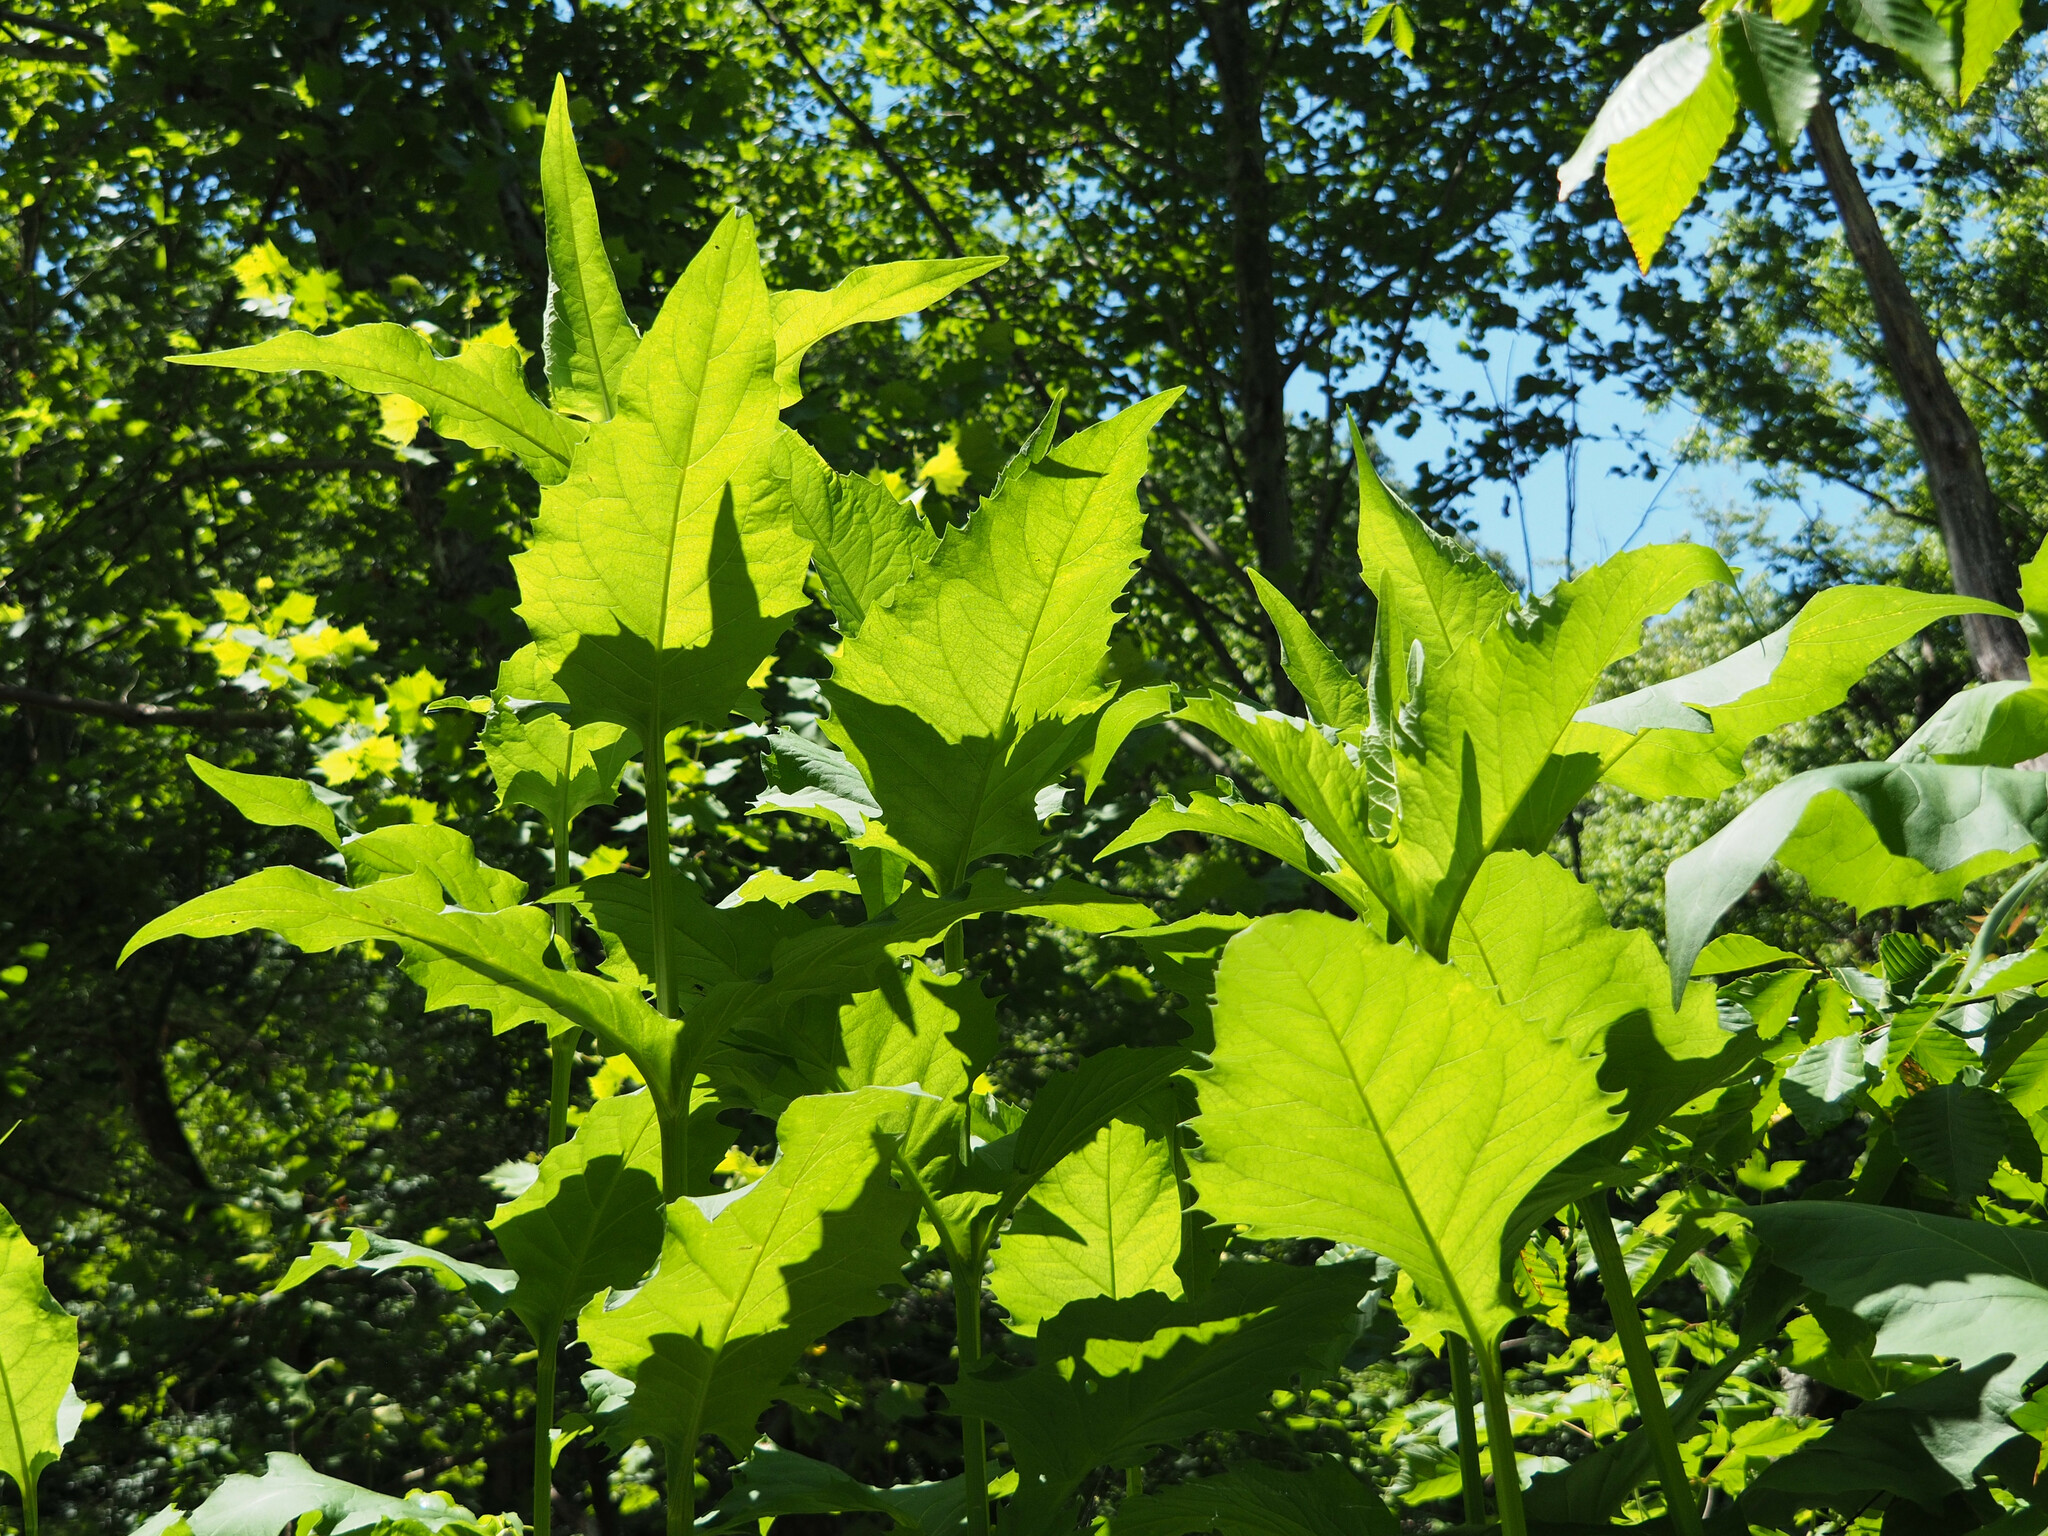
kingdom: Plantae
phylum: Tracheophyta
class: Magnoliopsida
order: Asterales
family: Asteraceae
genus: Silphium
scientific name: Silphium perfoliatum
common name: Cup-plant
